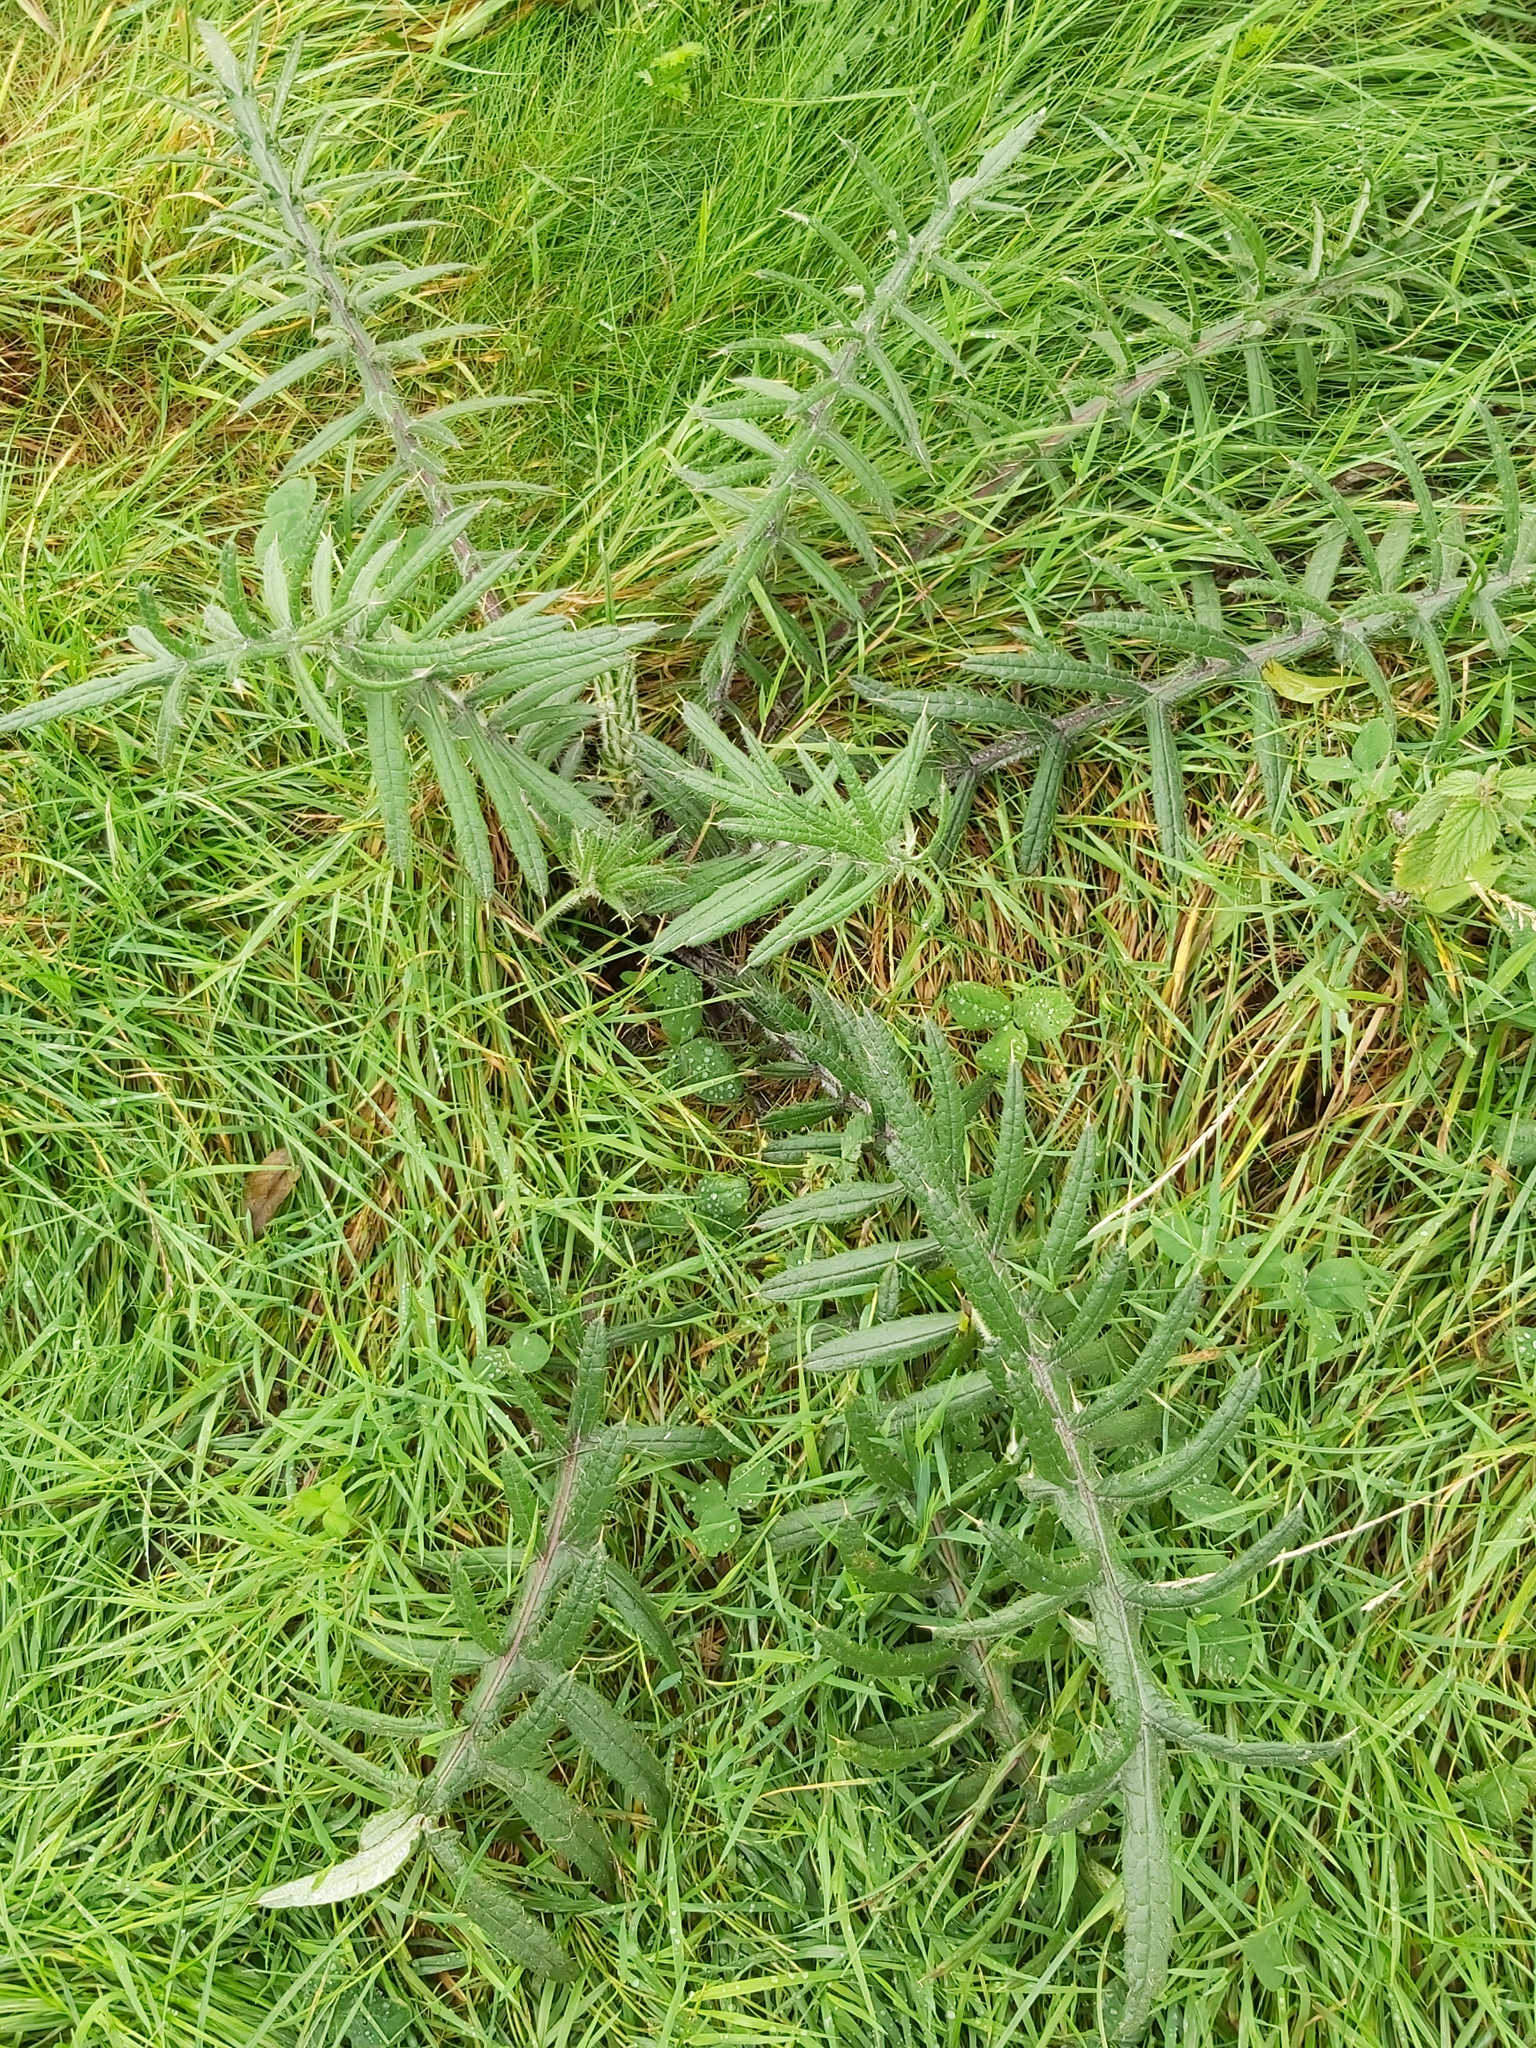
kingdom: Plantae
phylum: Tracheophyta
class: Magnoliopsida
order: Asterales
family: Asteraceae
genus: Lophiolepis
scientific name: Lophiolepis eriophora
